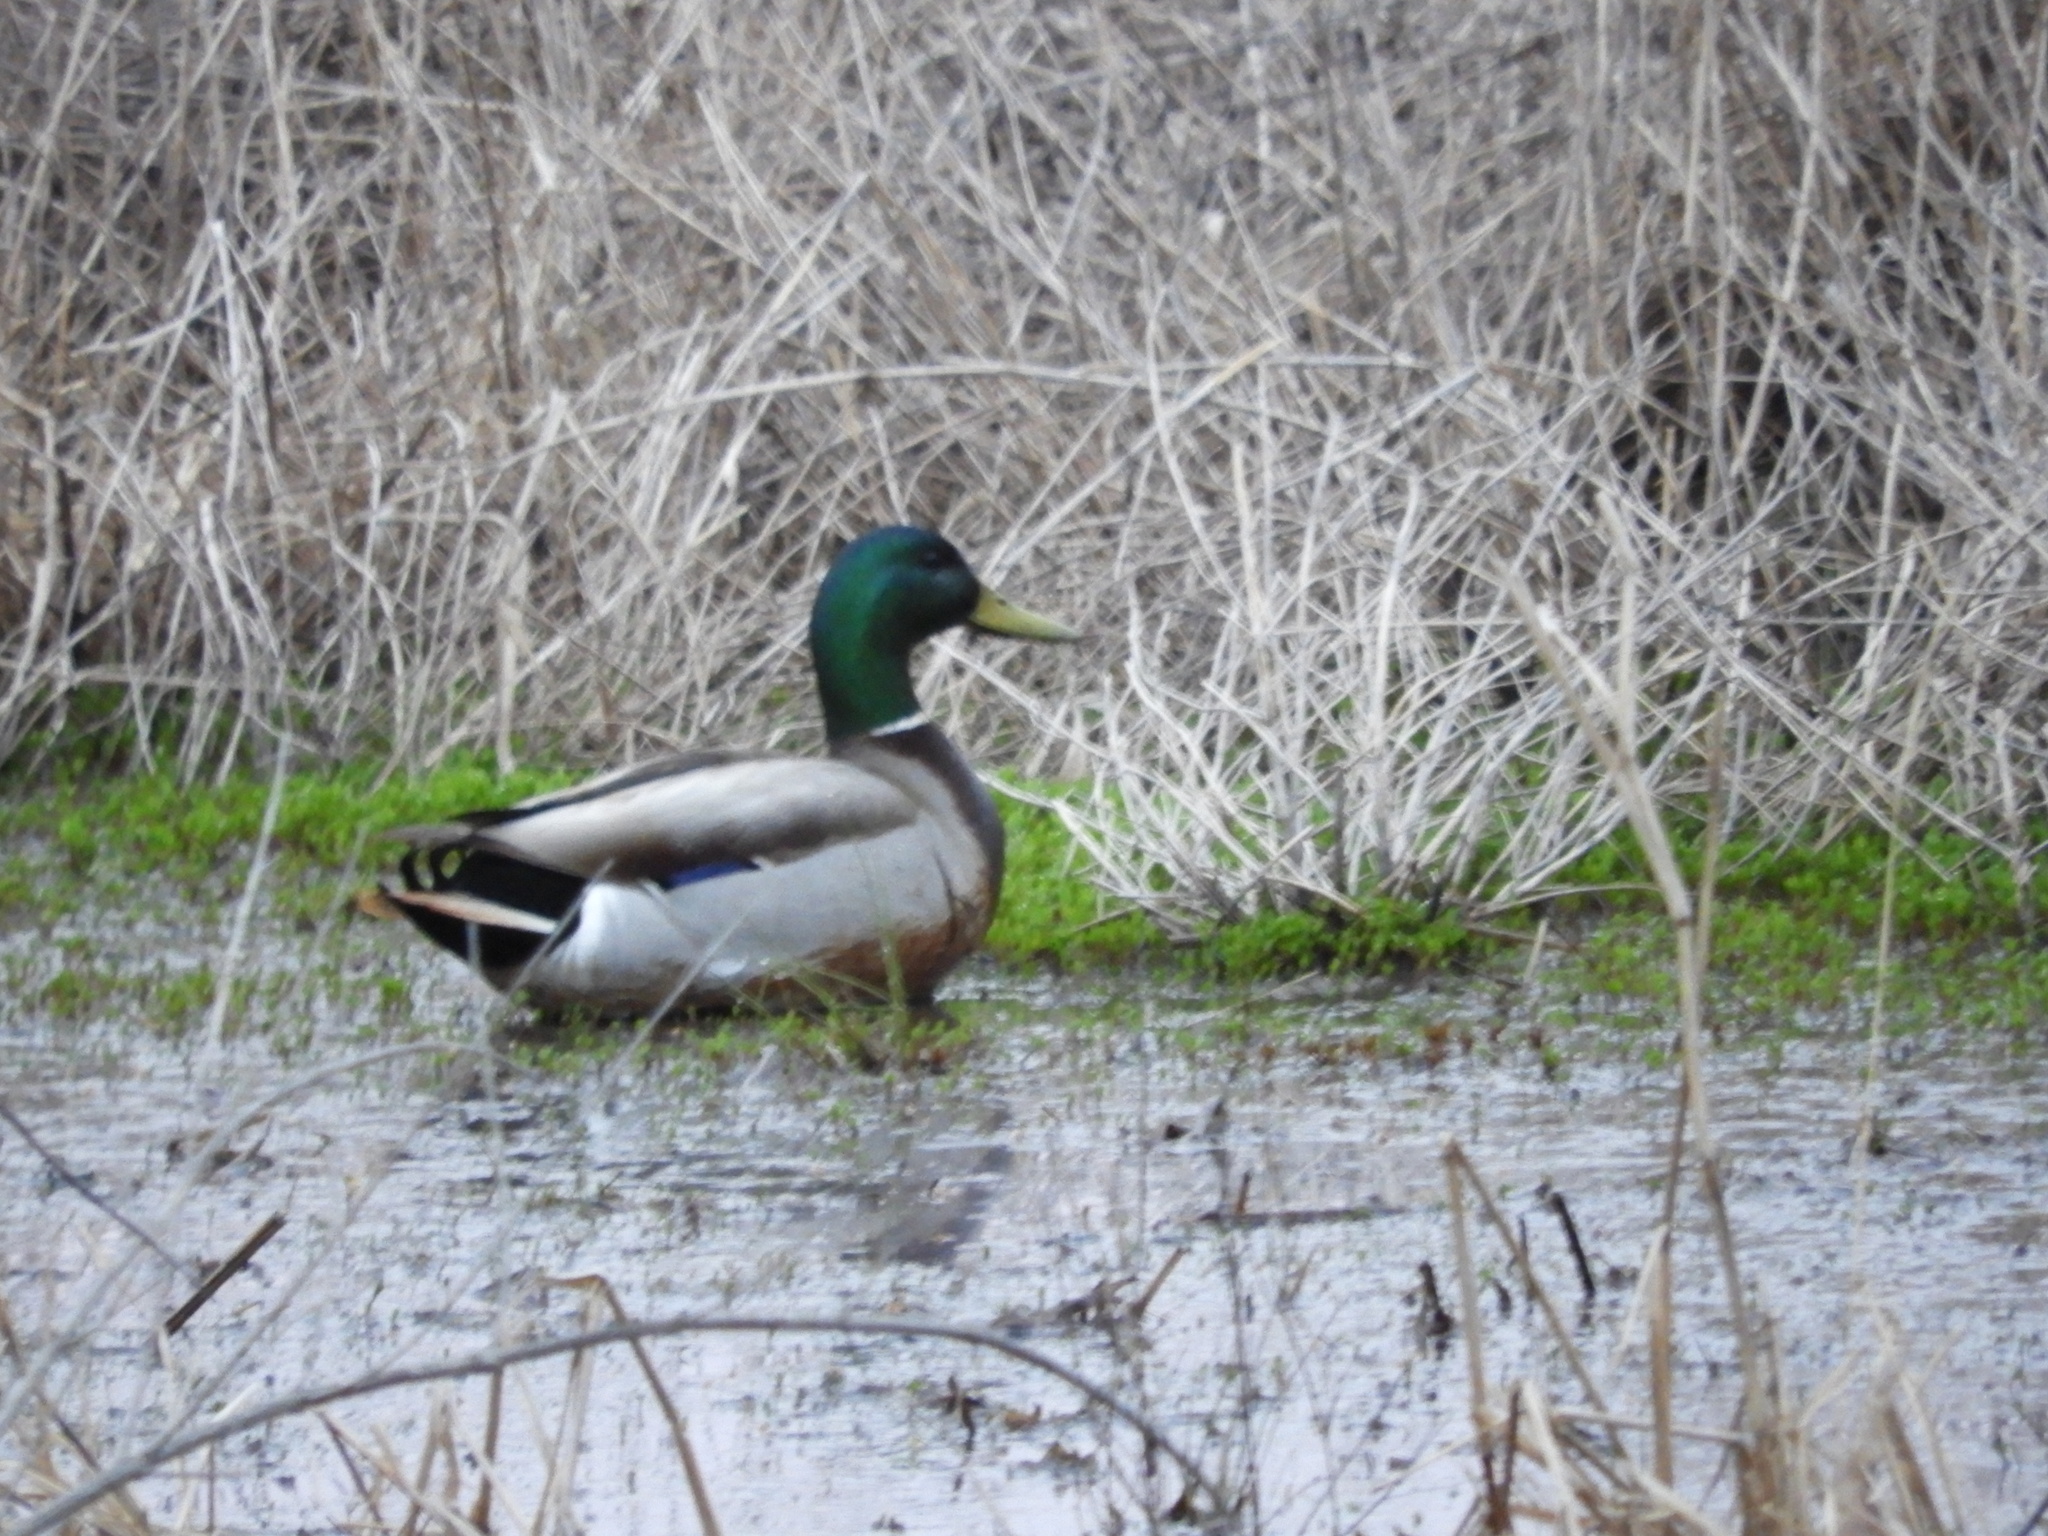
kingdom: Animalia
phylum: Chordata
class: Aves
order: Anseriformes
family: Anatidae
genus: Anas
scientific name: Anas platyrhynchos
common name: Mallard
